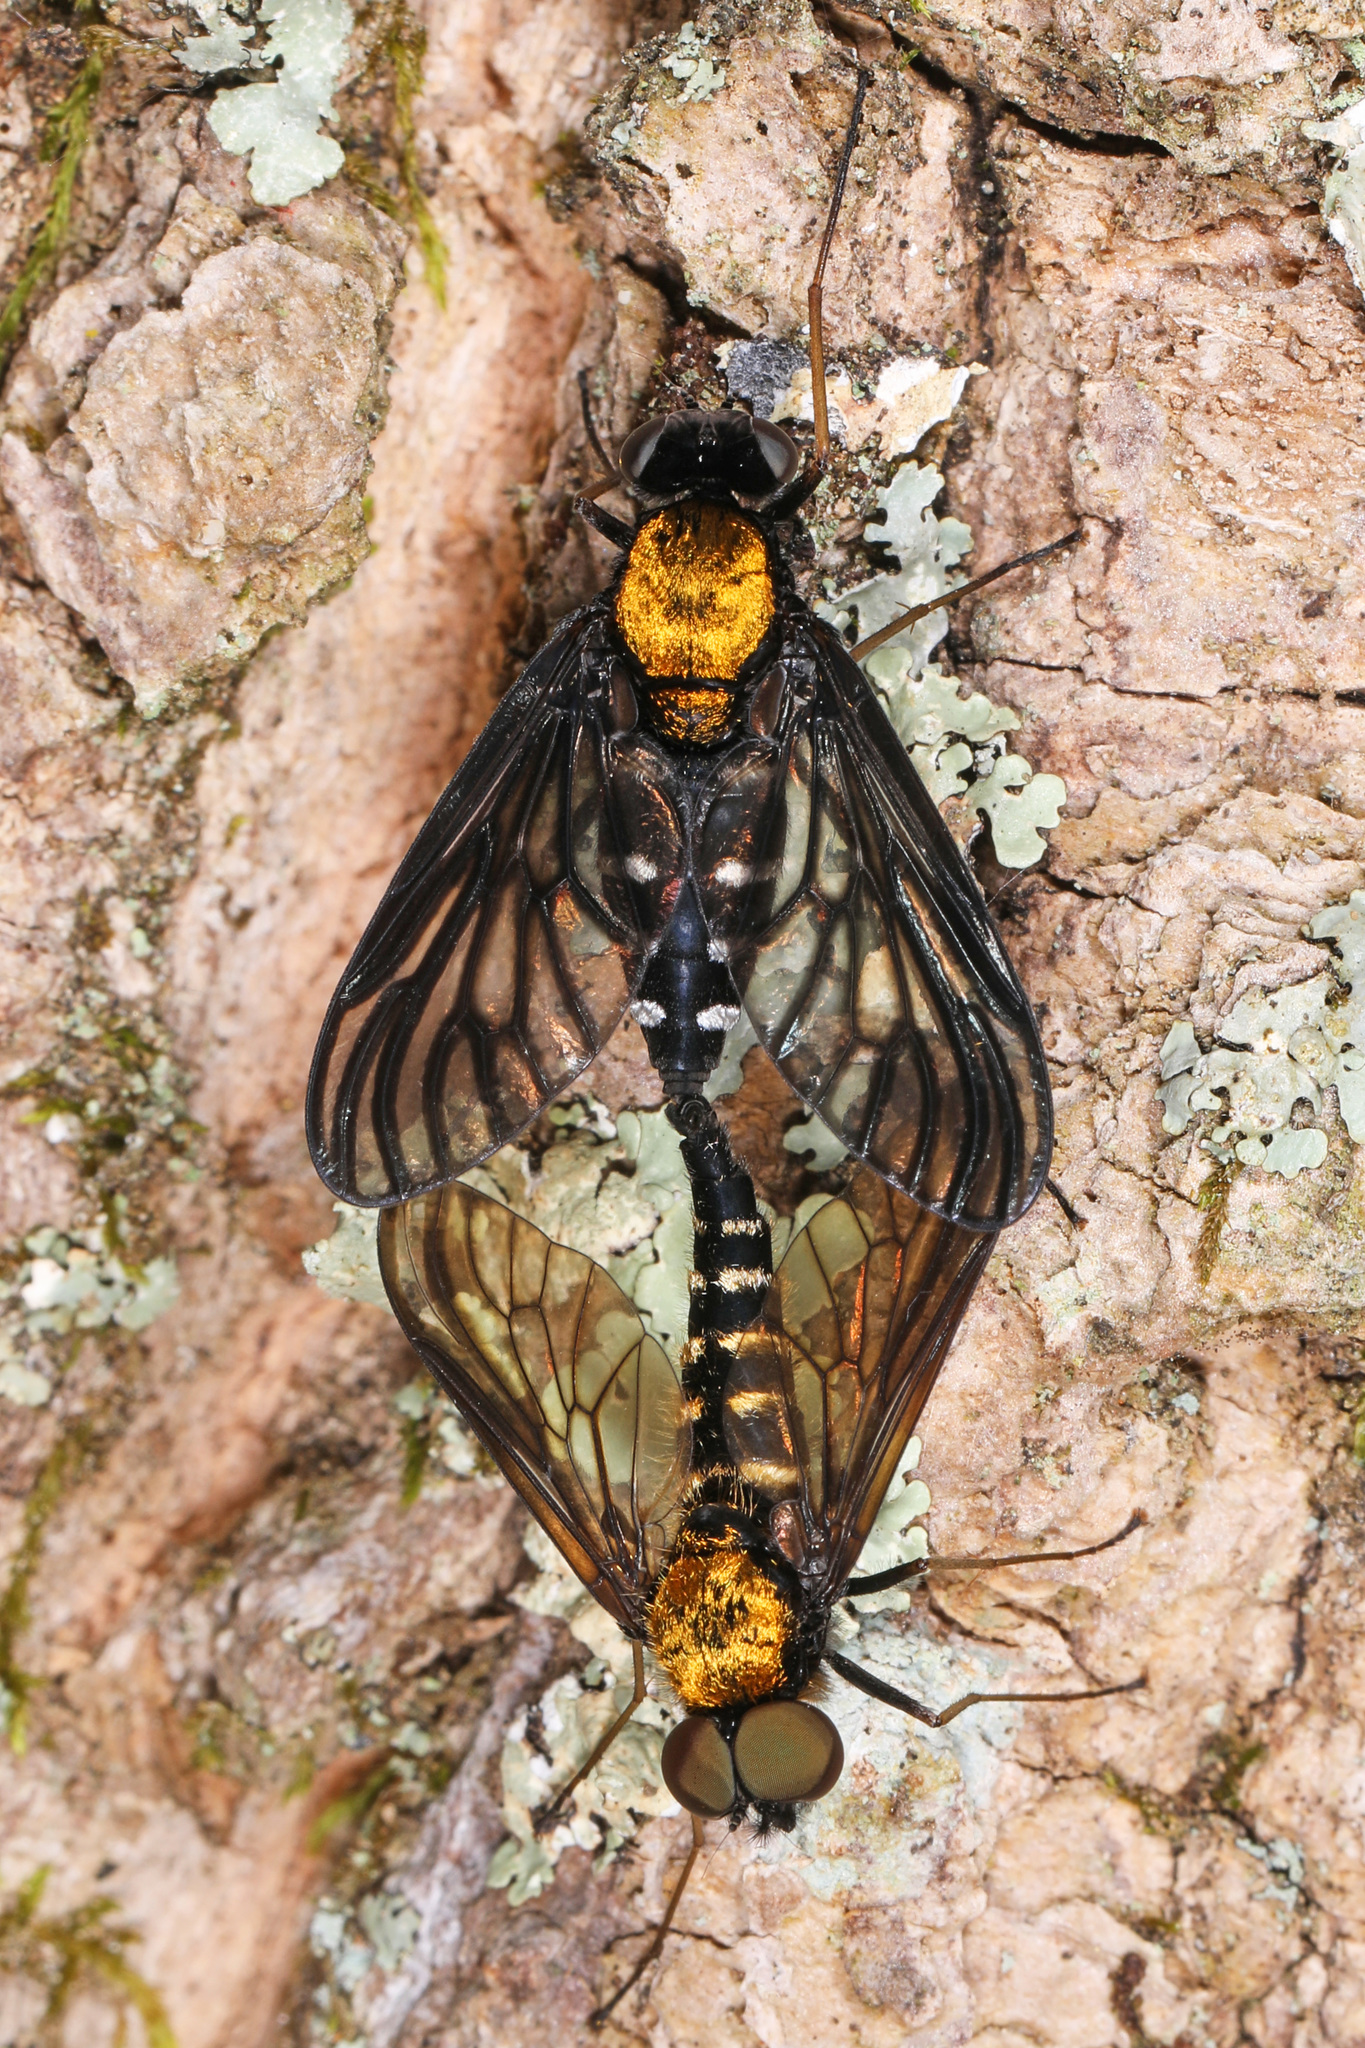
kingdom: Animalia
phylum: Arthropoda
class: Insecta
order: Diptera
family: Rhagionidae
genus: Chrysopilus
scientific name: Chrysopilus thoracicus
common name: Golden-backed snipe fly
